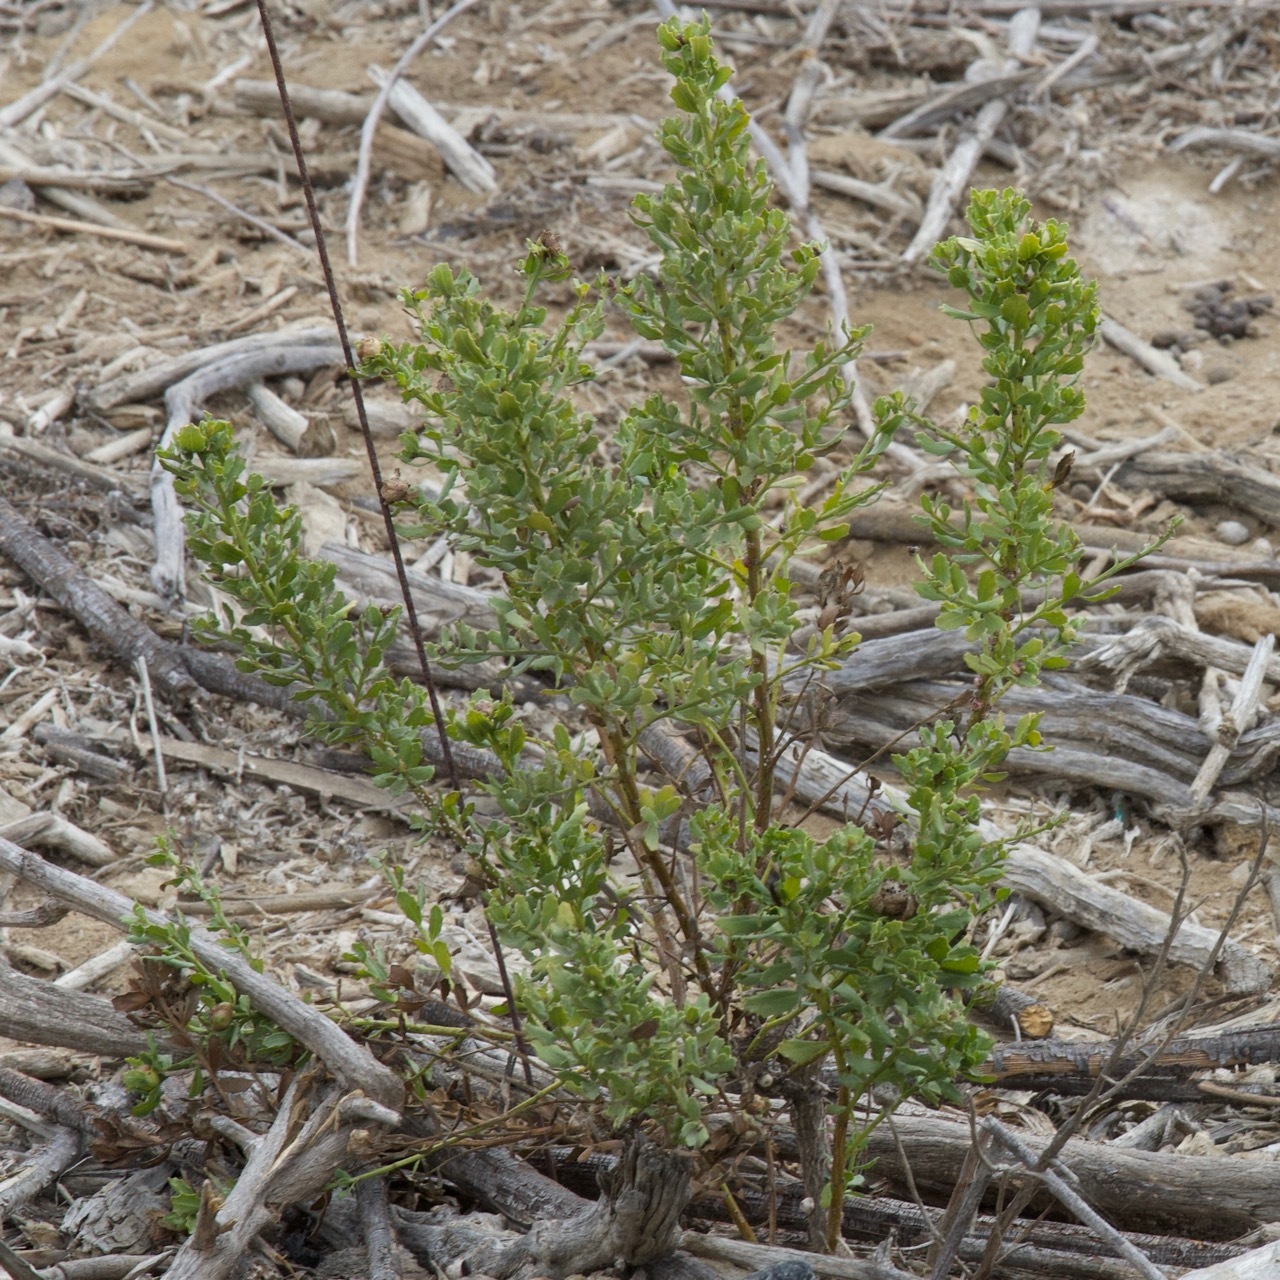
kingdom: Plantae
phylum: Tracheophyta
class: Magnoliopsida
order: Asterales
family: Asteraceae
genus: Baccharis
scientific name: Baccharis pilularis
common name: Coyotebrush
